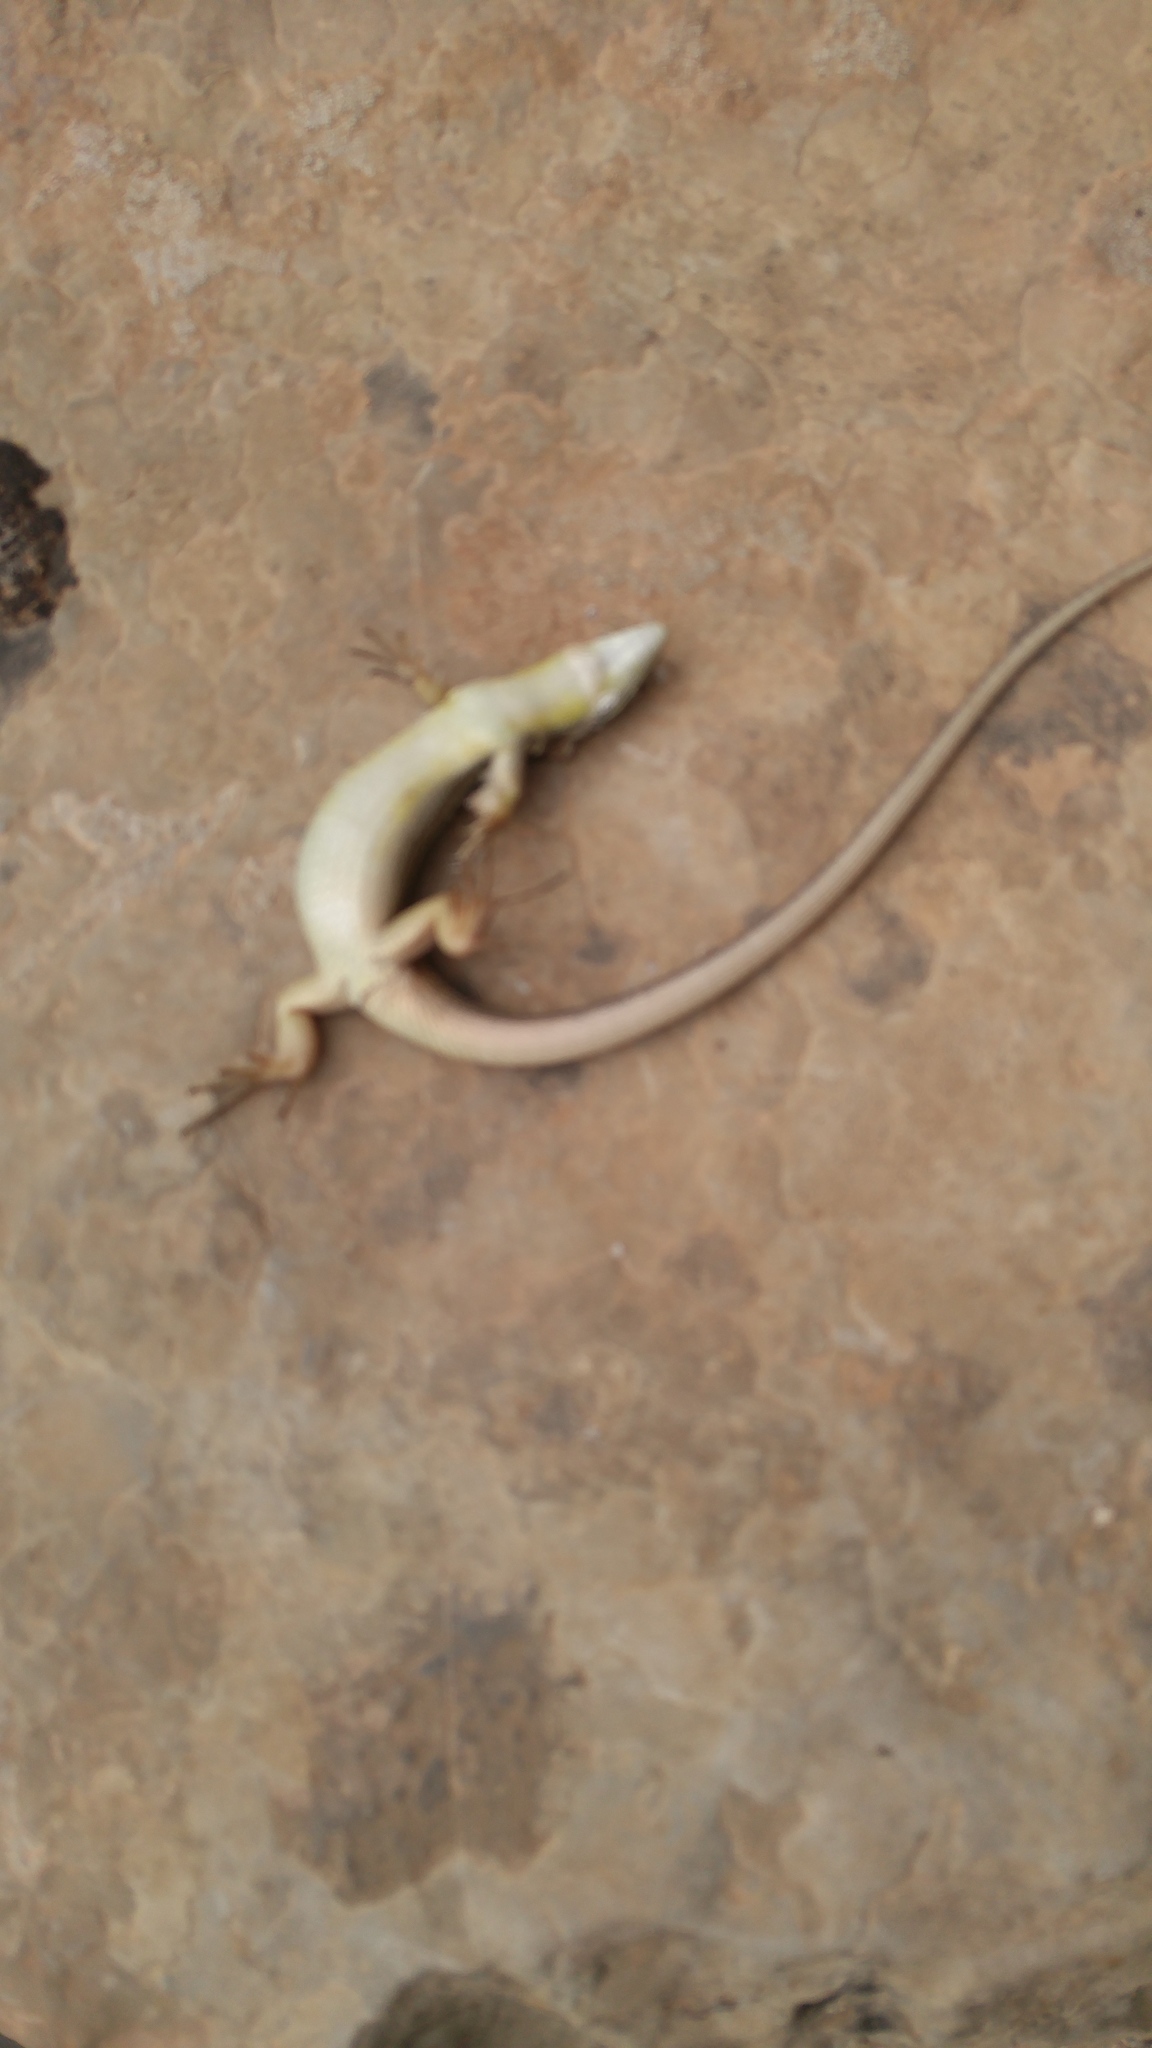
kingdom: Animalia
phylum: Chordata
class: Squamata
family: Lacertidae
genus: Psammodromus
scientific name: Psammodromus algirus
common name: Algerian psammodromus
